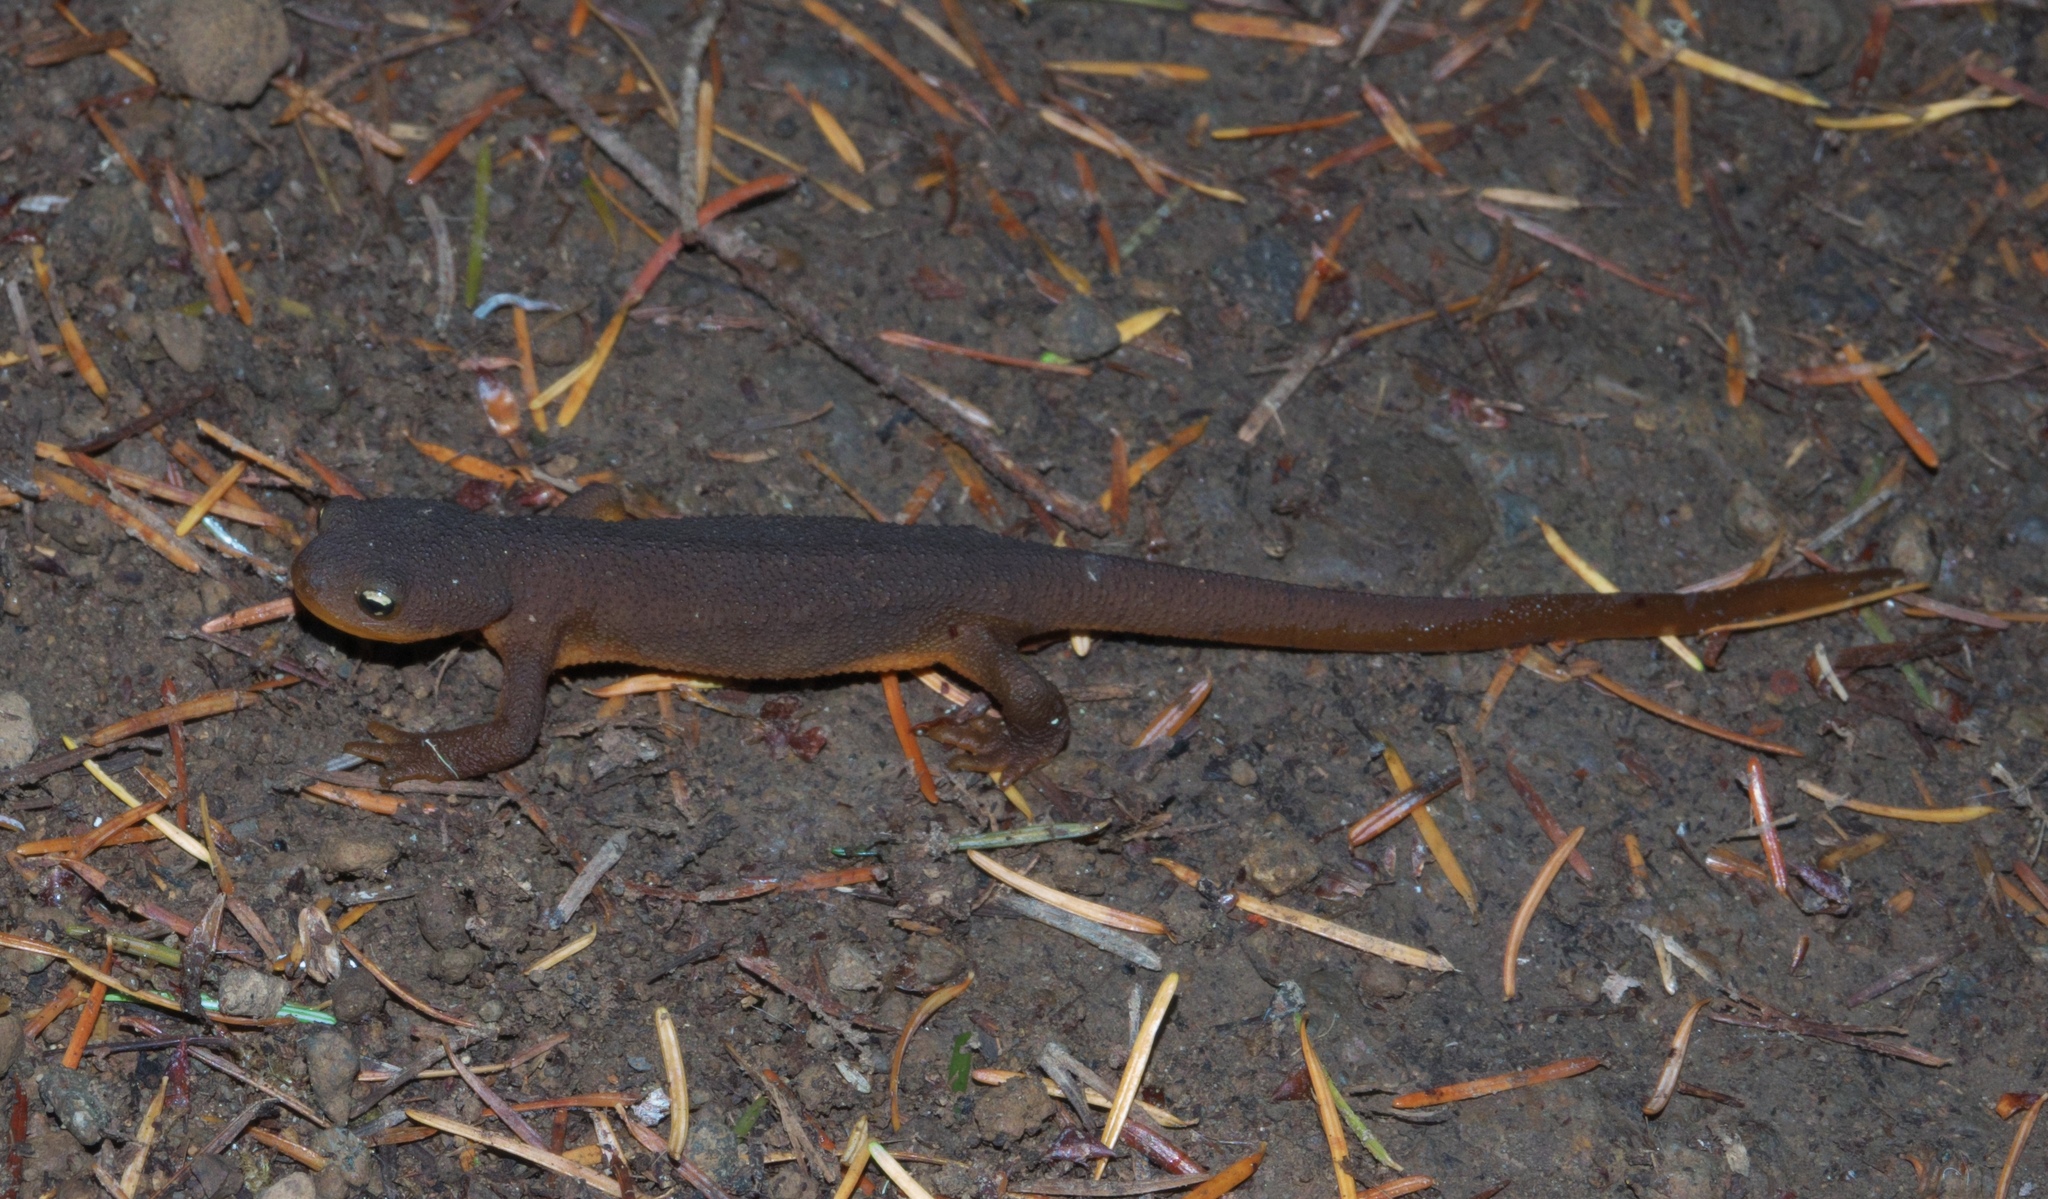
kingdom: Animalia
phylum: Chordata
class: Amphibia
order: Caudata
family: Salamandridae
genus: Taricha
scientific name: Taricha granulosa
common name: Roughskin newt
